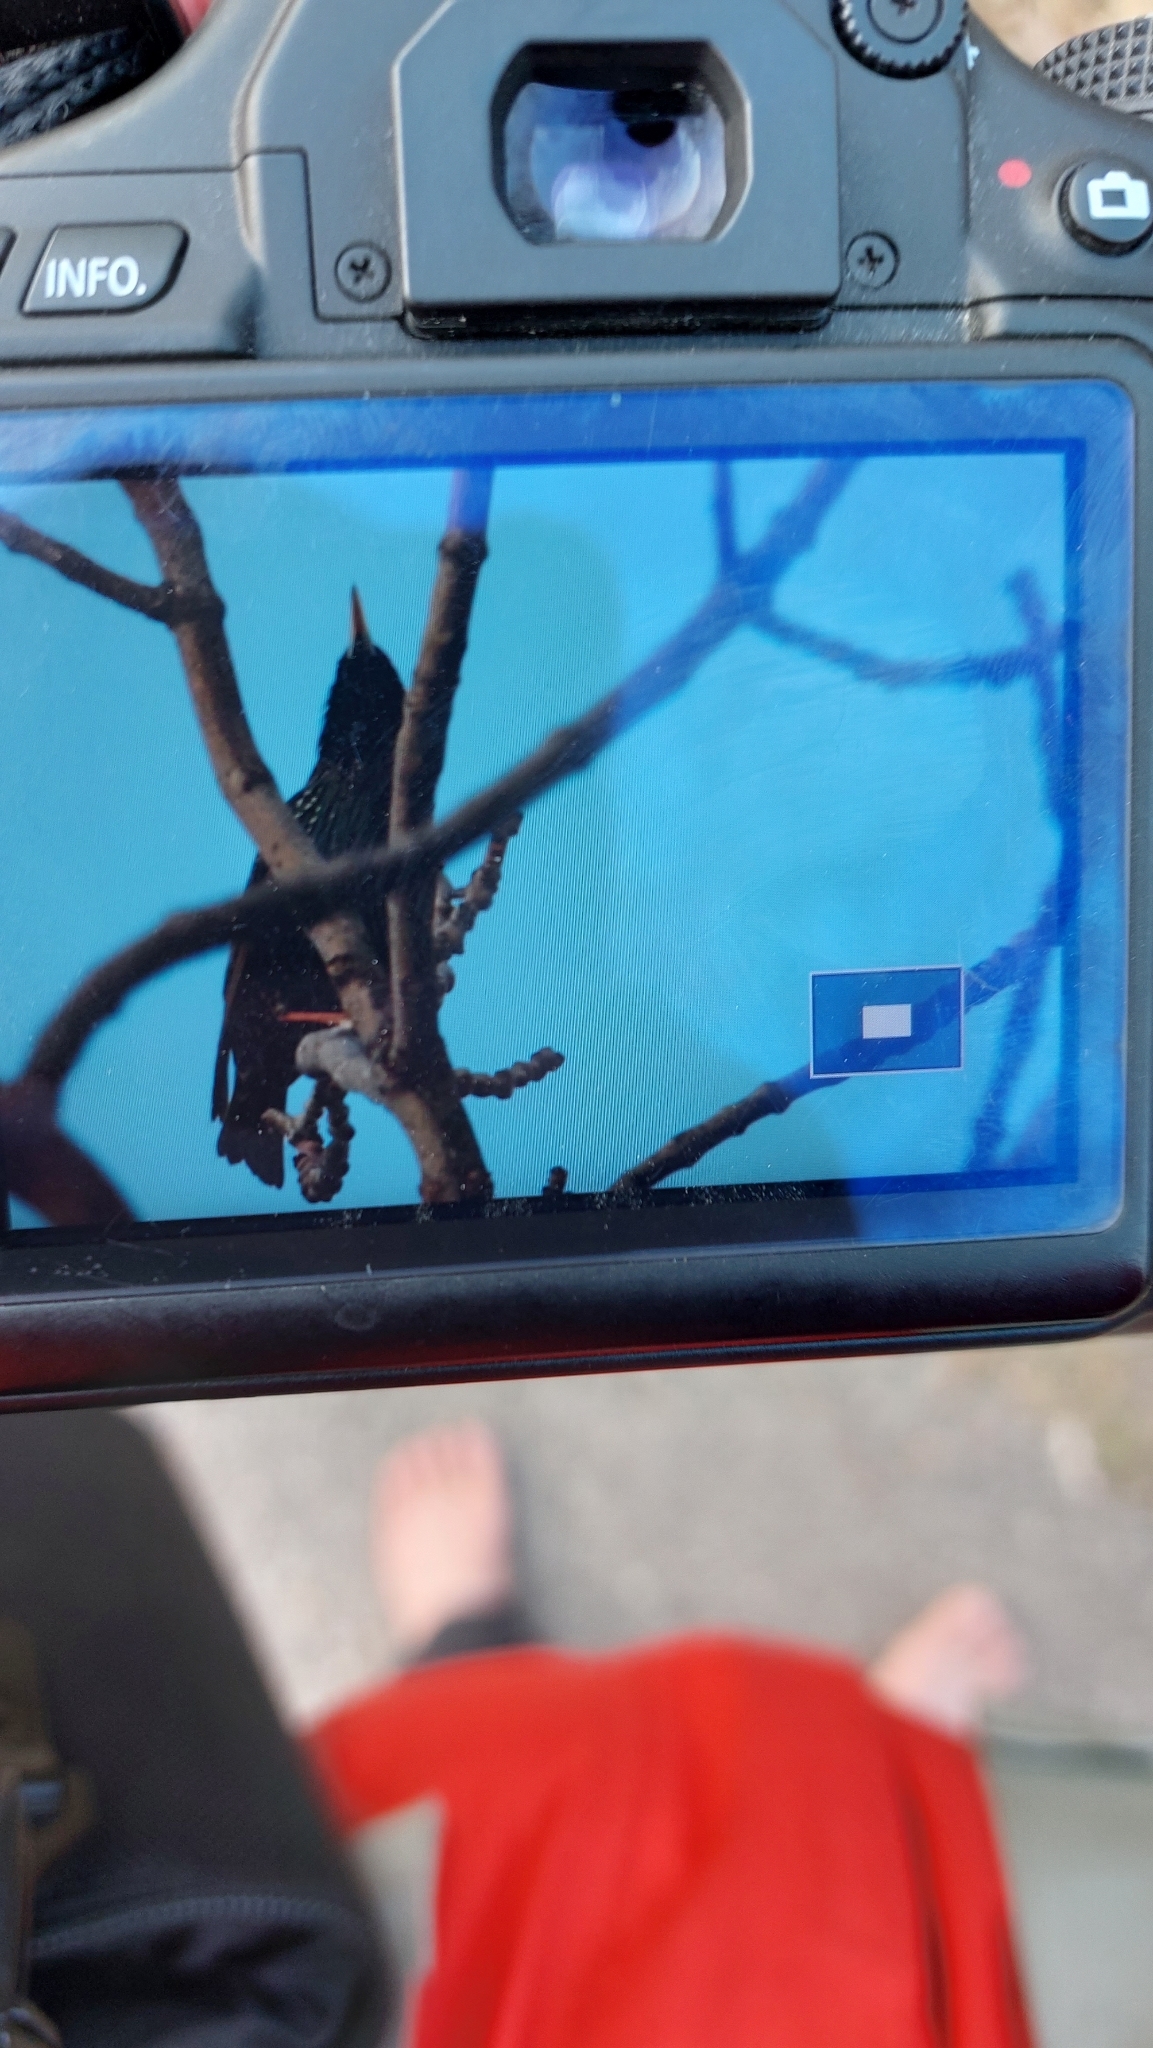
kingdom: Animalia
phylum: Chordata
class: Aves
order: Passeriformes
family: Sturnidae
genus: Sturnus
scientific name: Sturnus vulgaris
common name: Common starling
